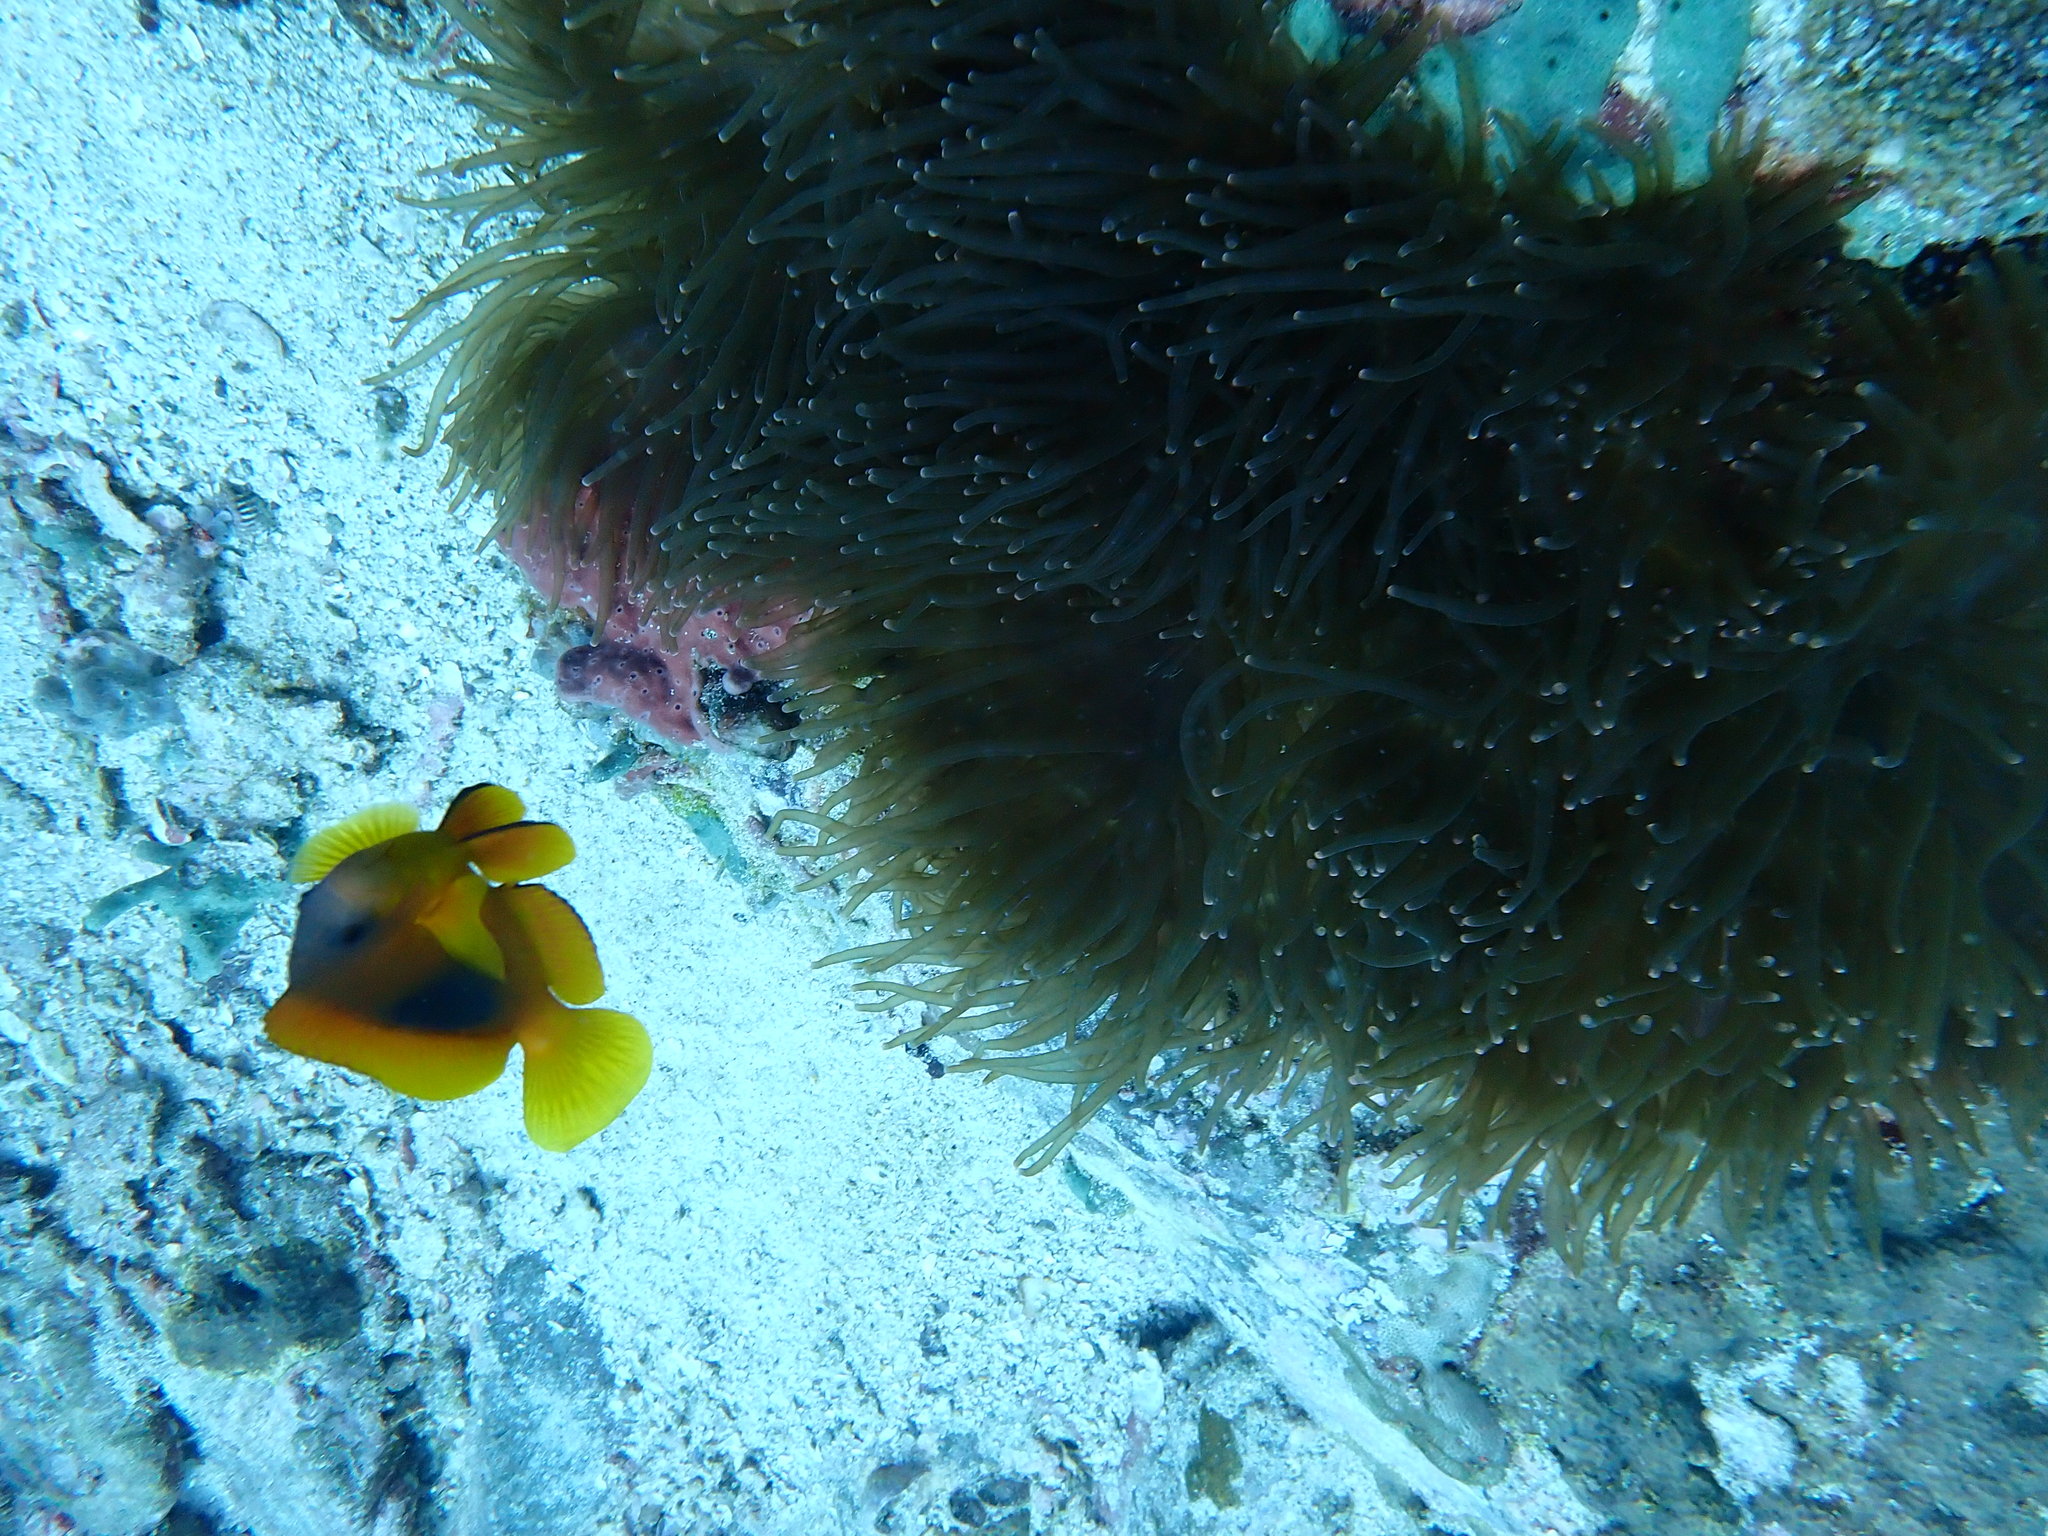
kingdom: Animalia
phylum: Chordata
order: Perciformes
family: Pomacentridae
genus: Amphiprion
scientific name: Amphiprion ephippium
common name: Red saddleback anemonefish
